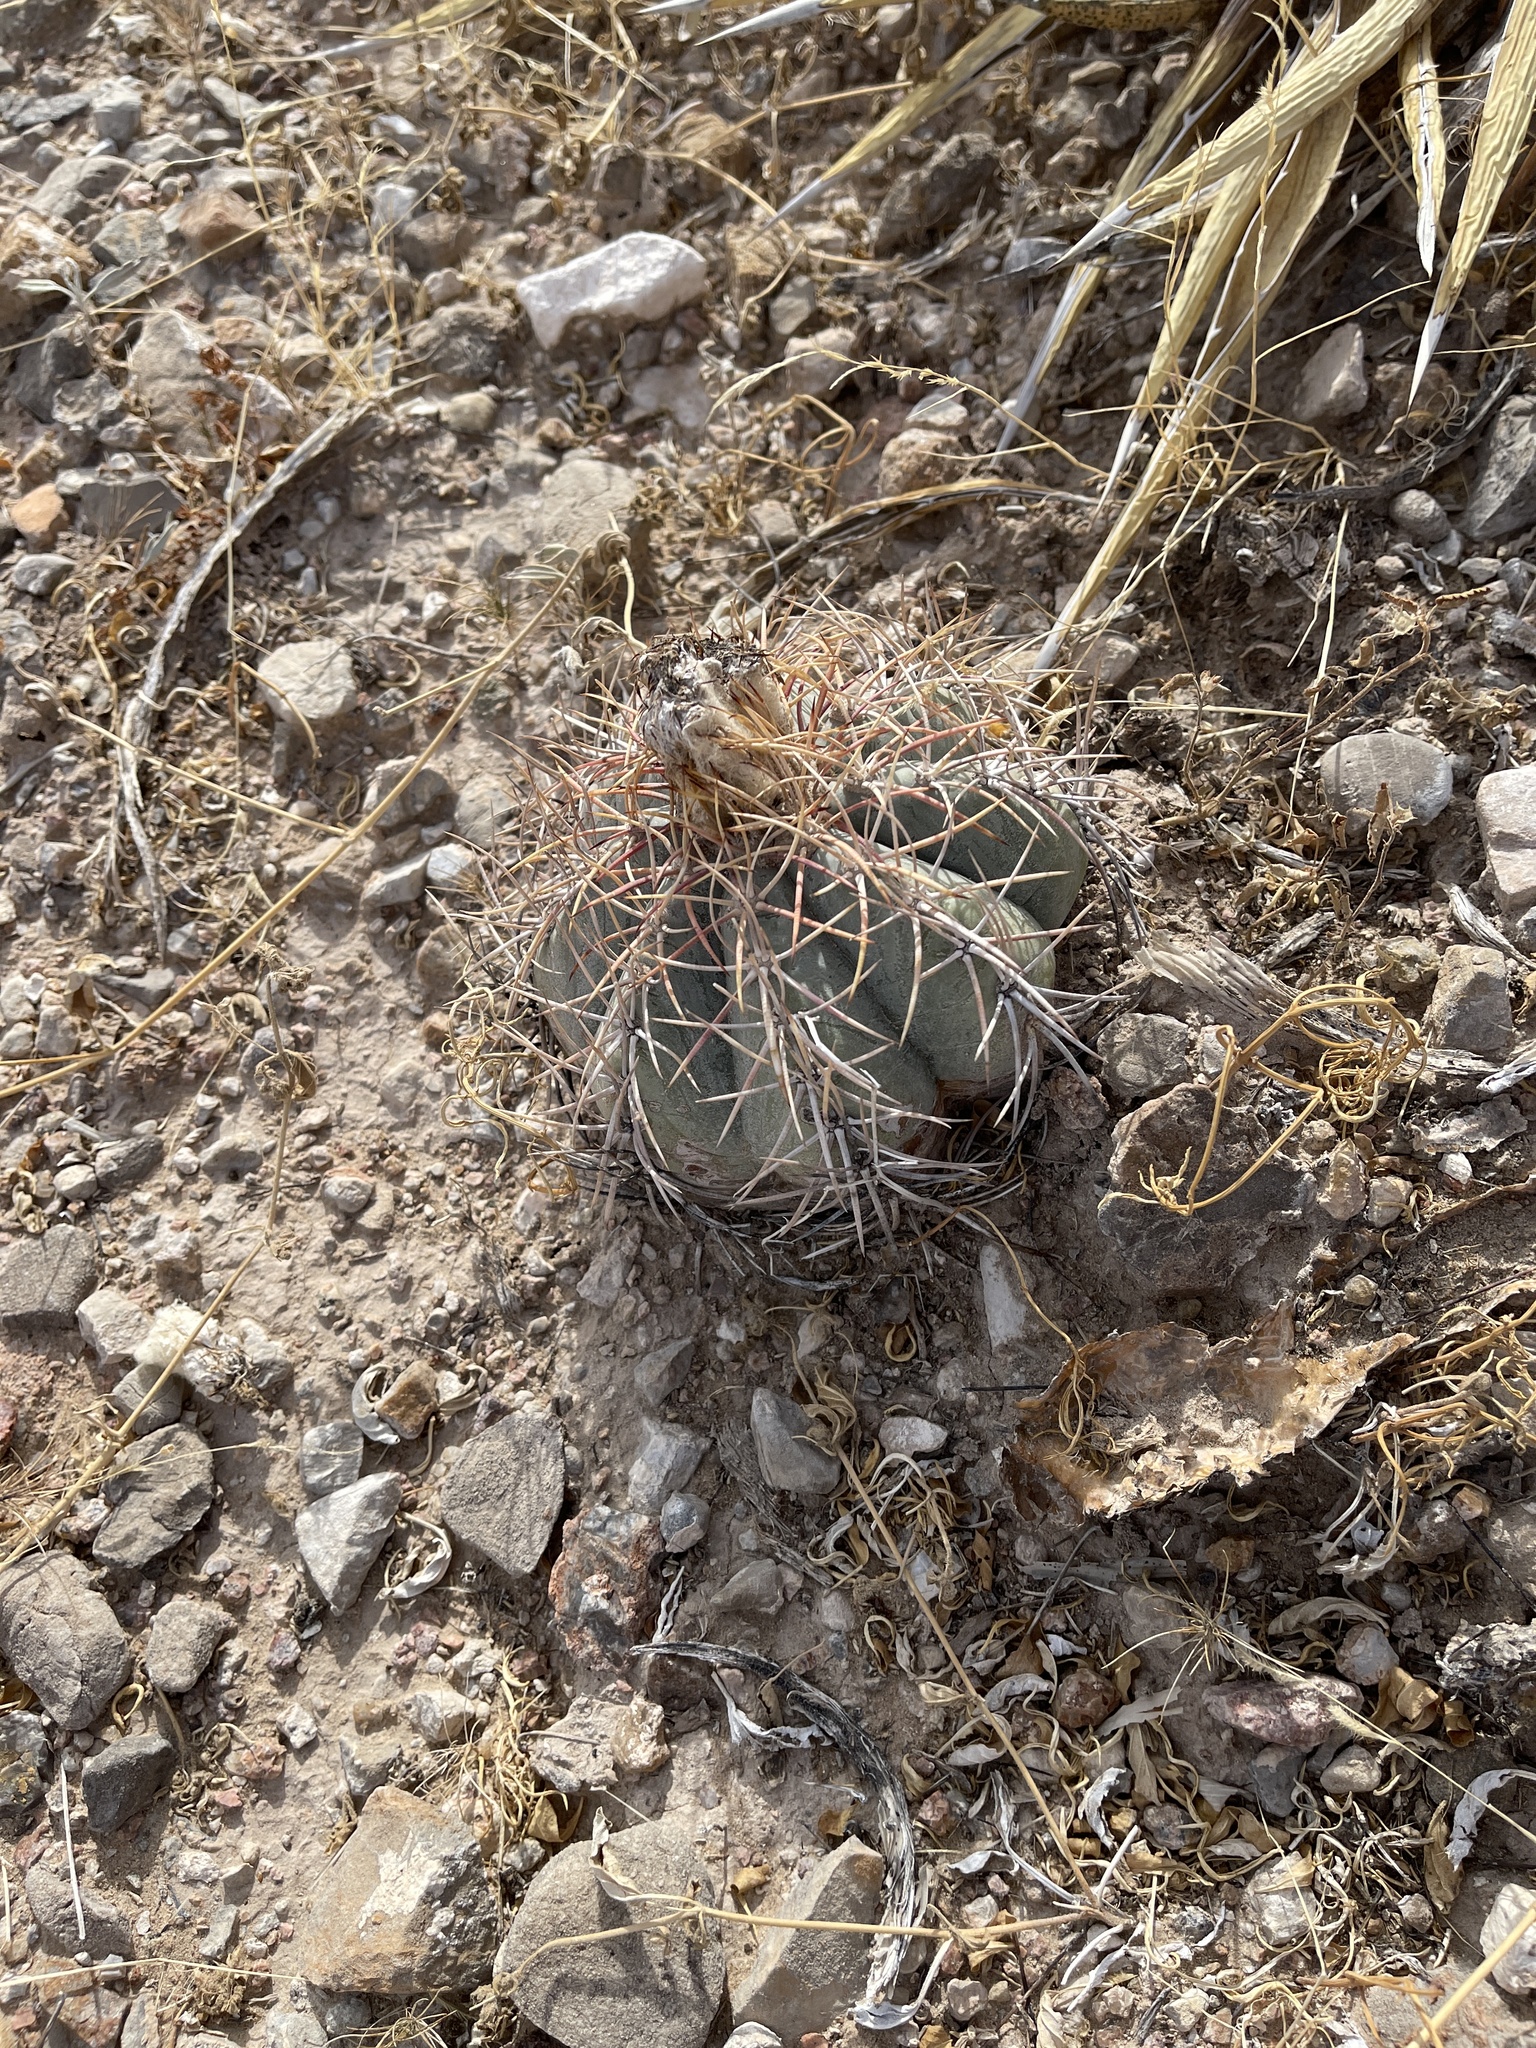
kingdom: Plantae
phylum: Tracheophyta
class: Magnoliopsida
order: Caryophyllales
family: Cactaceae
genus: Echinocactus
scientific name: Echinocactus horizonthalonius
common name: Devilshead
